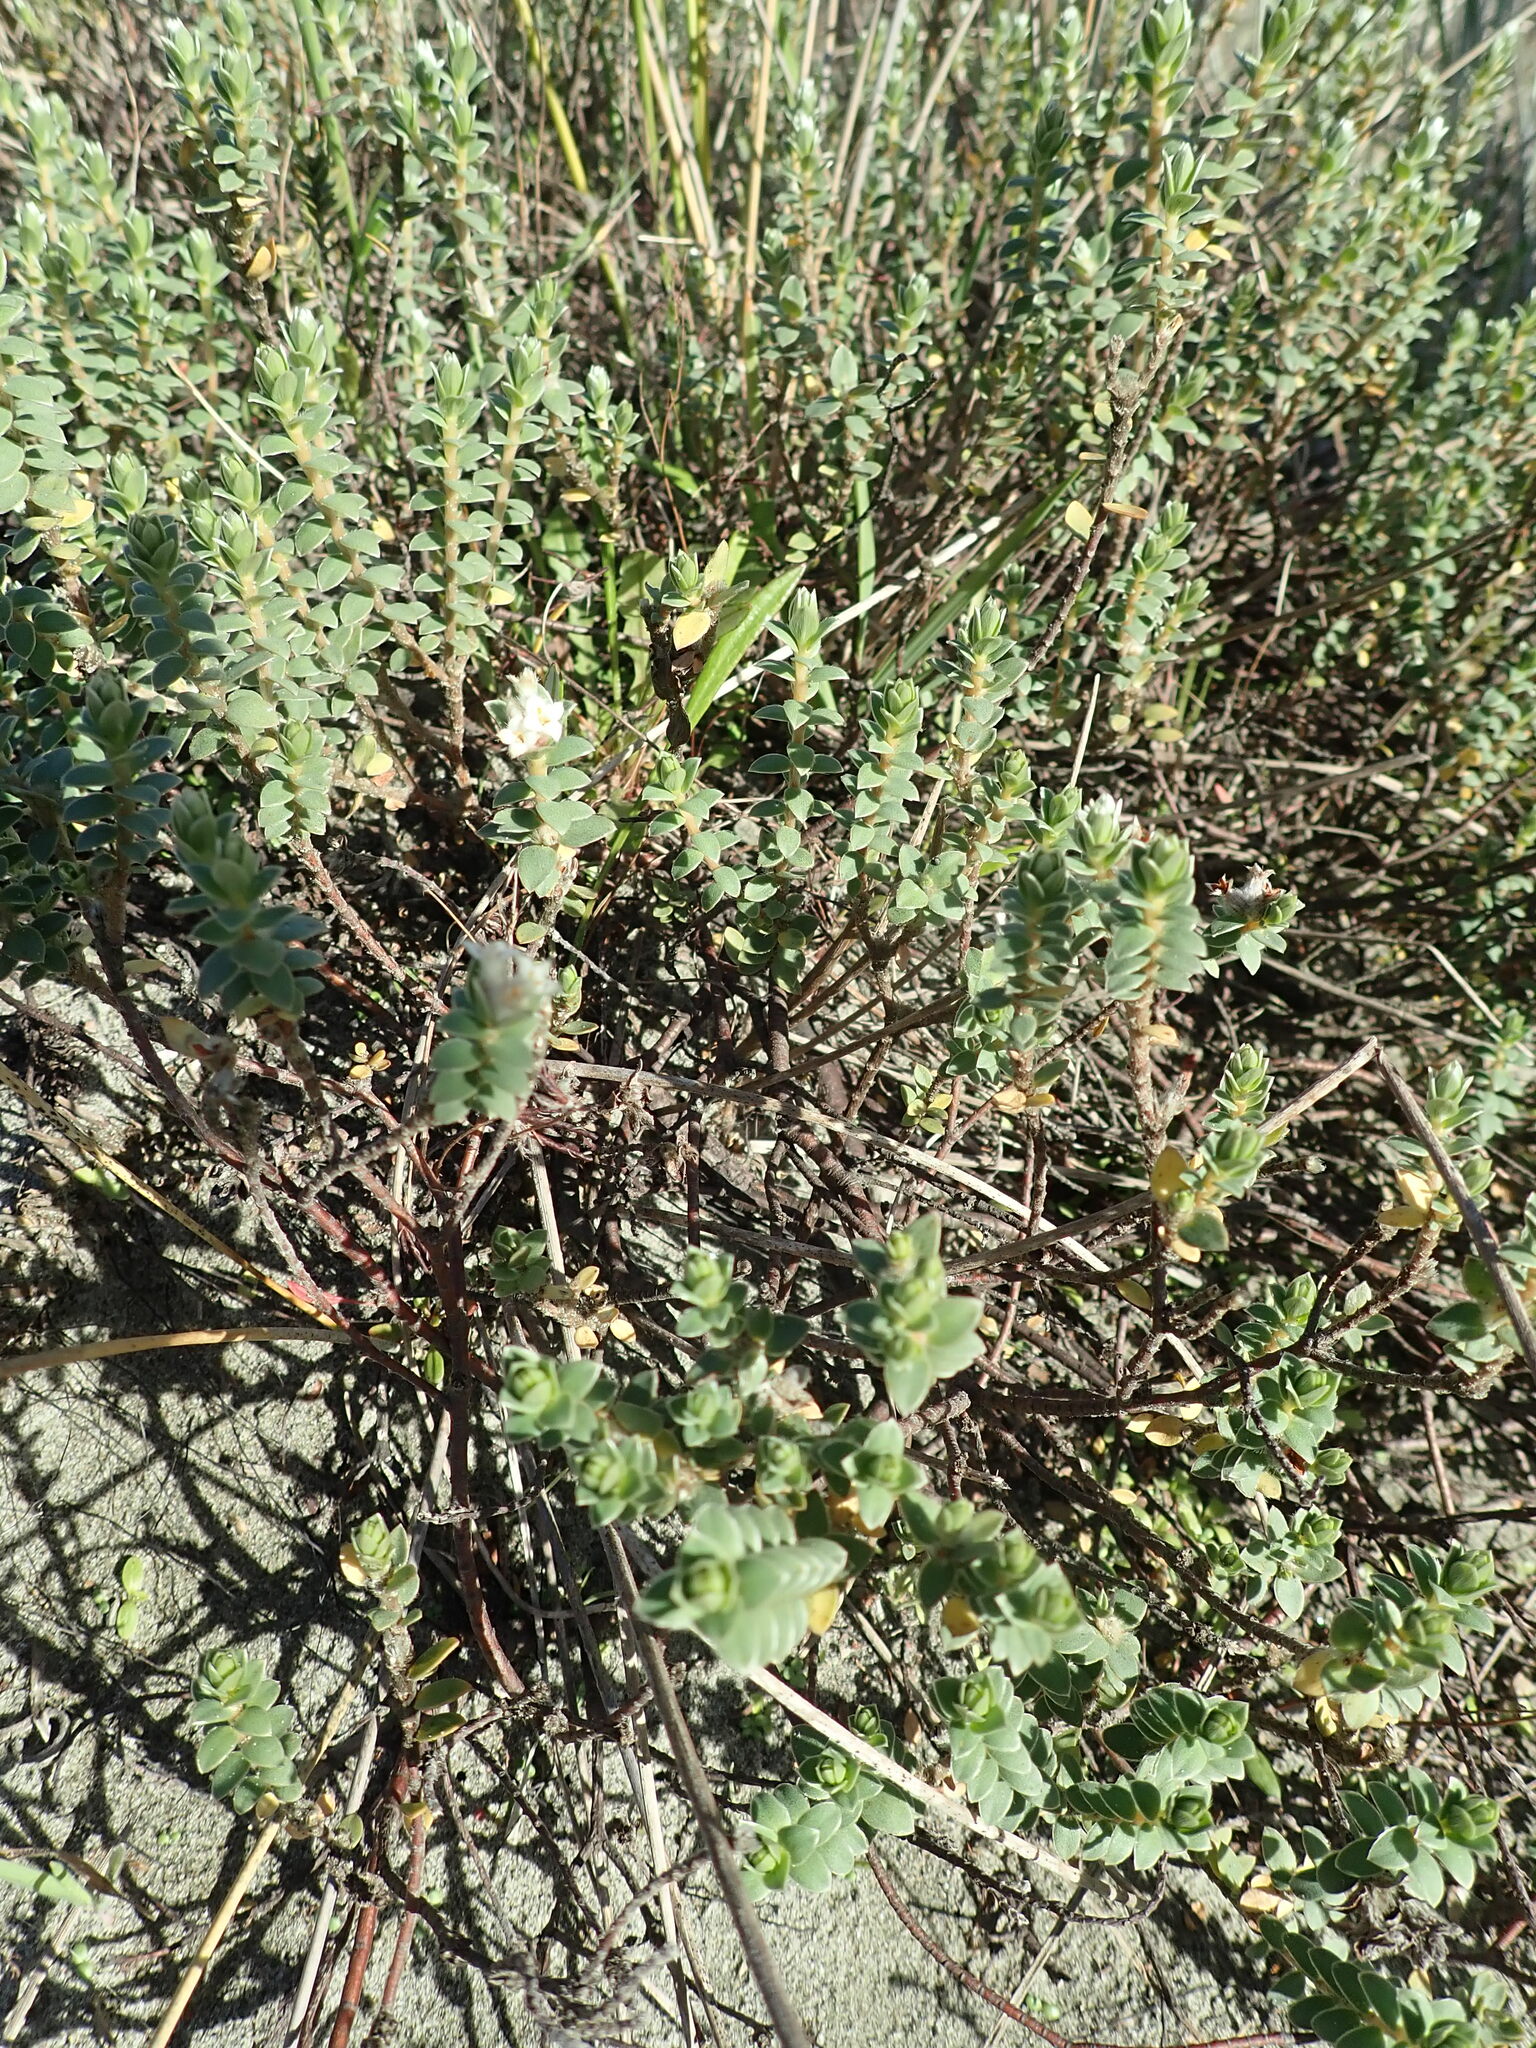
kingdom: Plantae
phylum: Tracheophyta
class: Magnoliopsida
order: Malvales
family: Thymelaeaceae
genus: Pimelea
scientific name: Pimelea villosa
